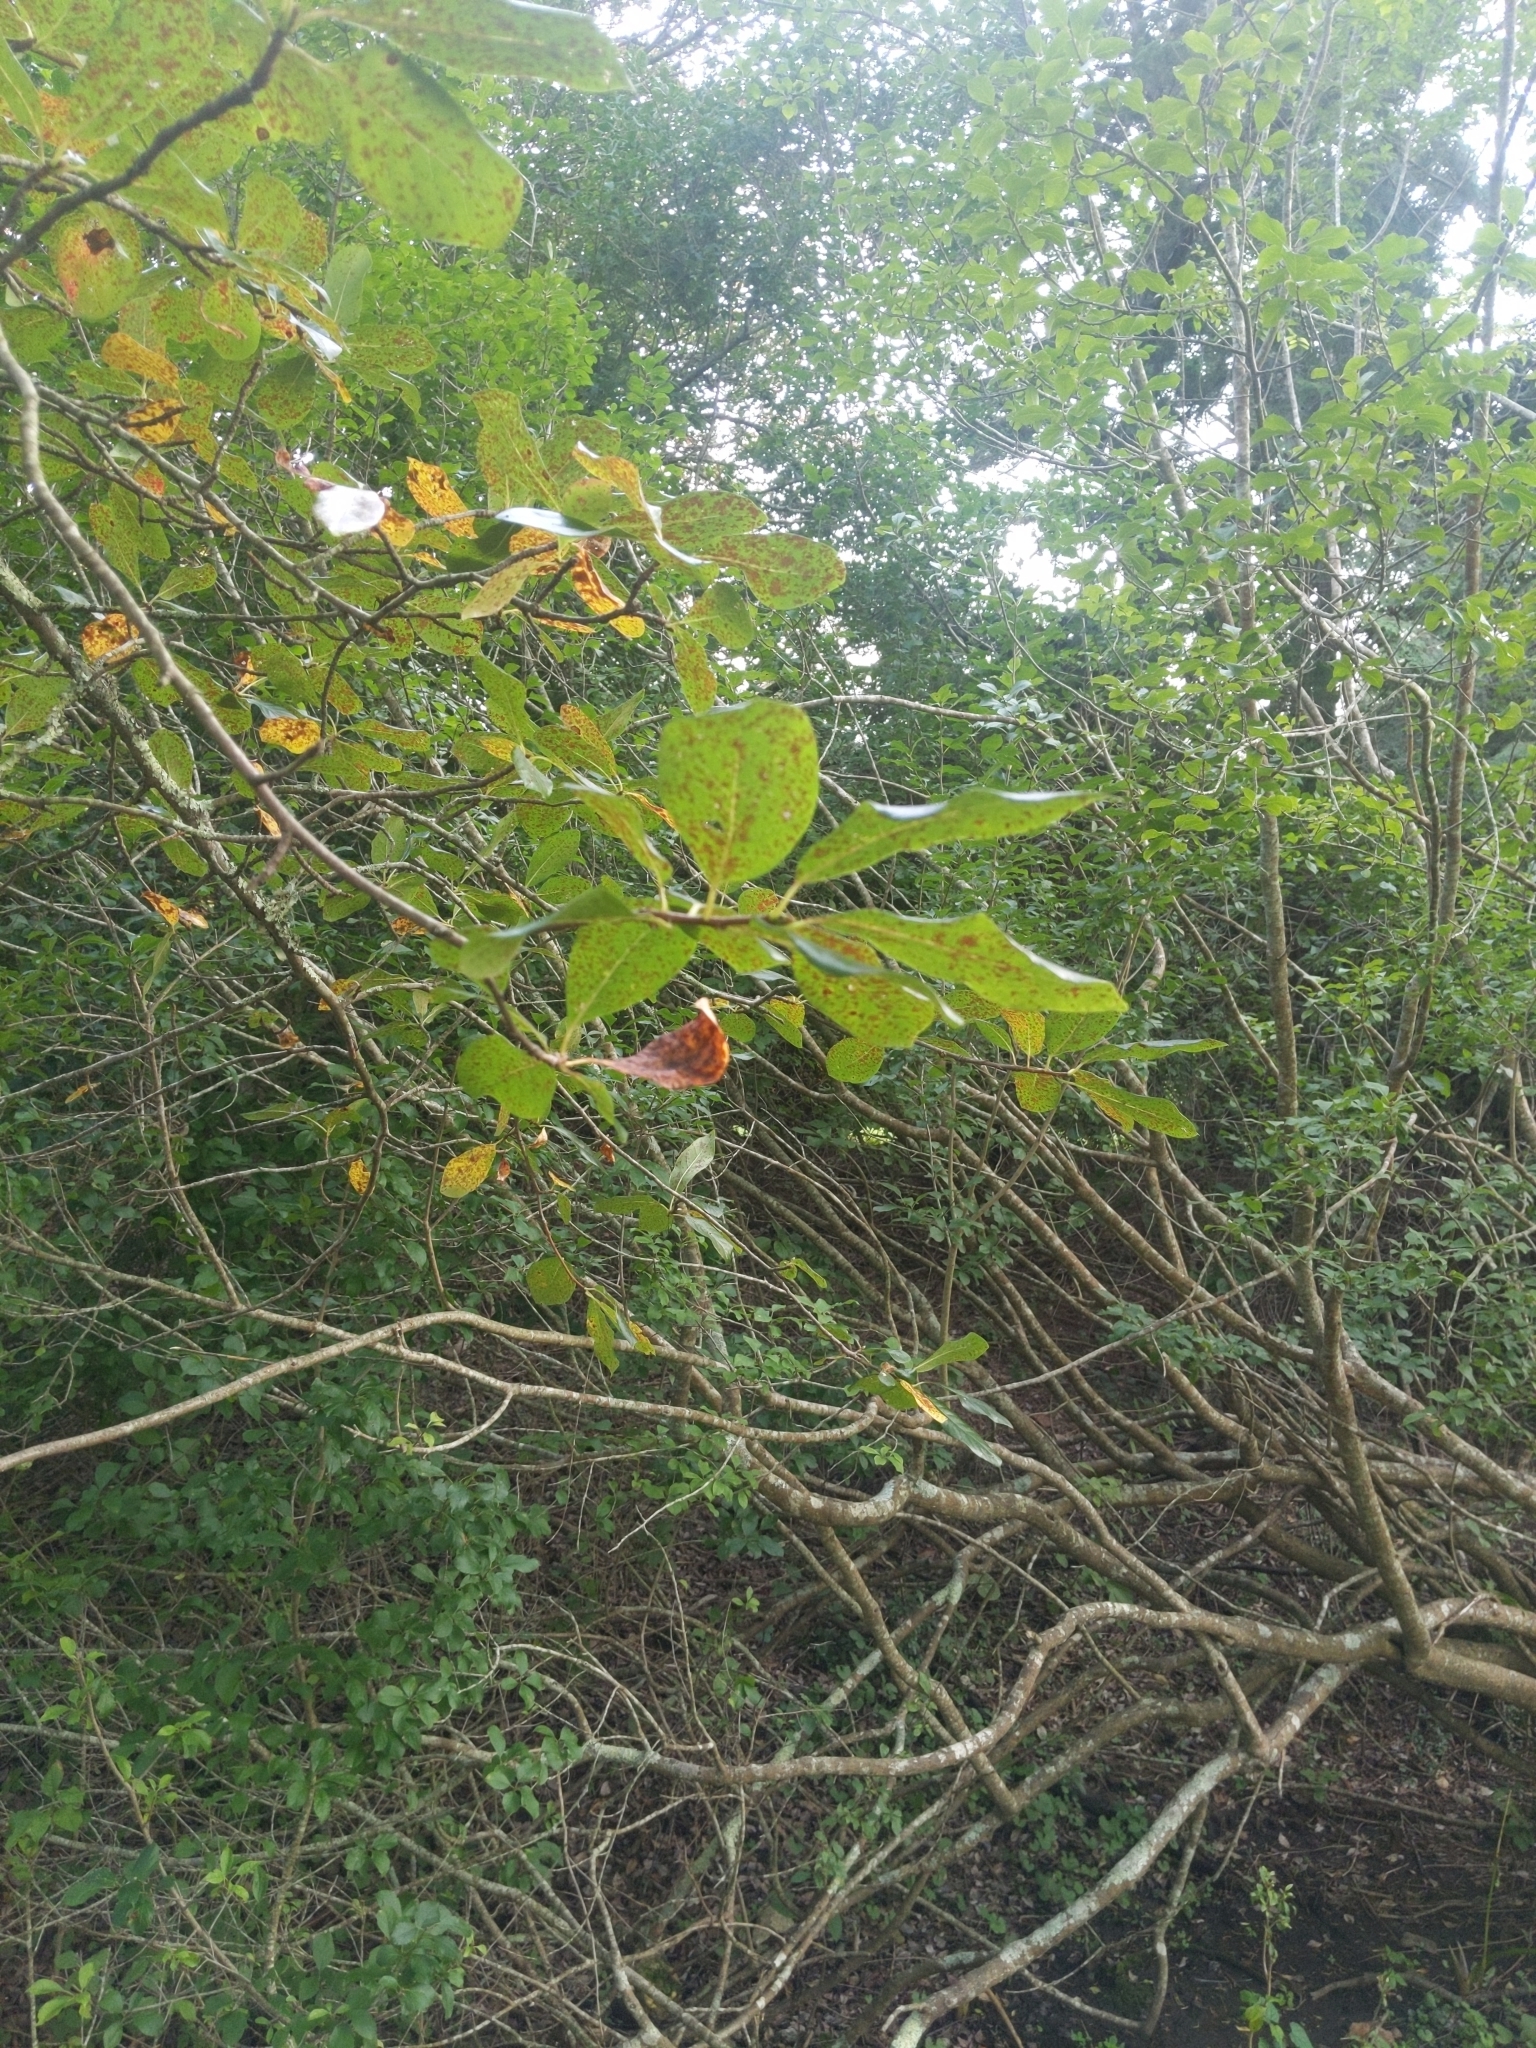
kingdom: Plantae
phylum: Tracheophyta
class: Magnoliopsida
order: Cornales
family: Nyssaceae
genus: Nyssa
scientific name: Nyssa sylvatica
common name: Black tupelo
